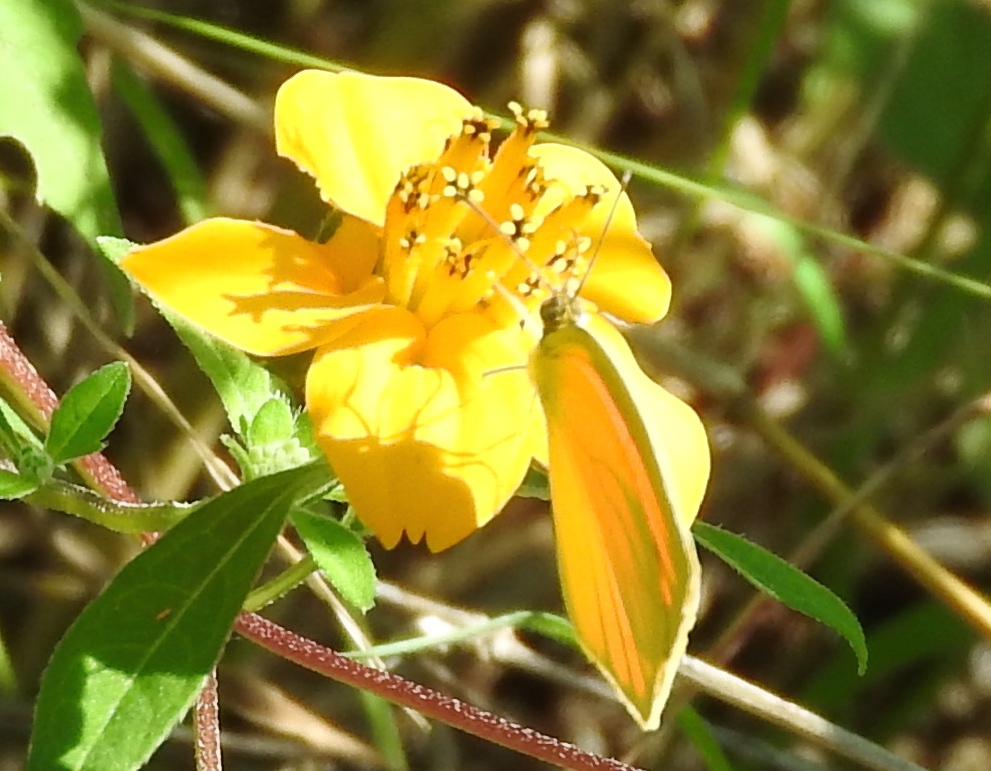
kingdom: Animalia
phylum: Arthropoda
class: Insecta
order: Lepidoptera
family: Pieridae
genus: Pyrisitia
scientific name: Pyrisitia proterpia
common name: Tailed orange
